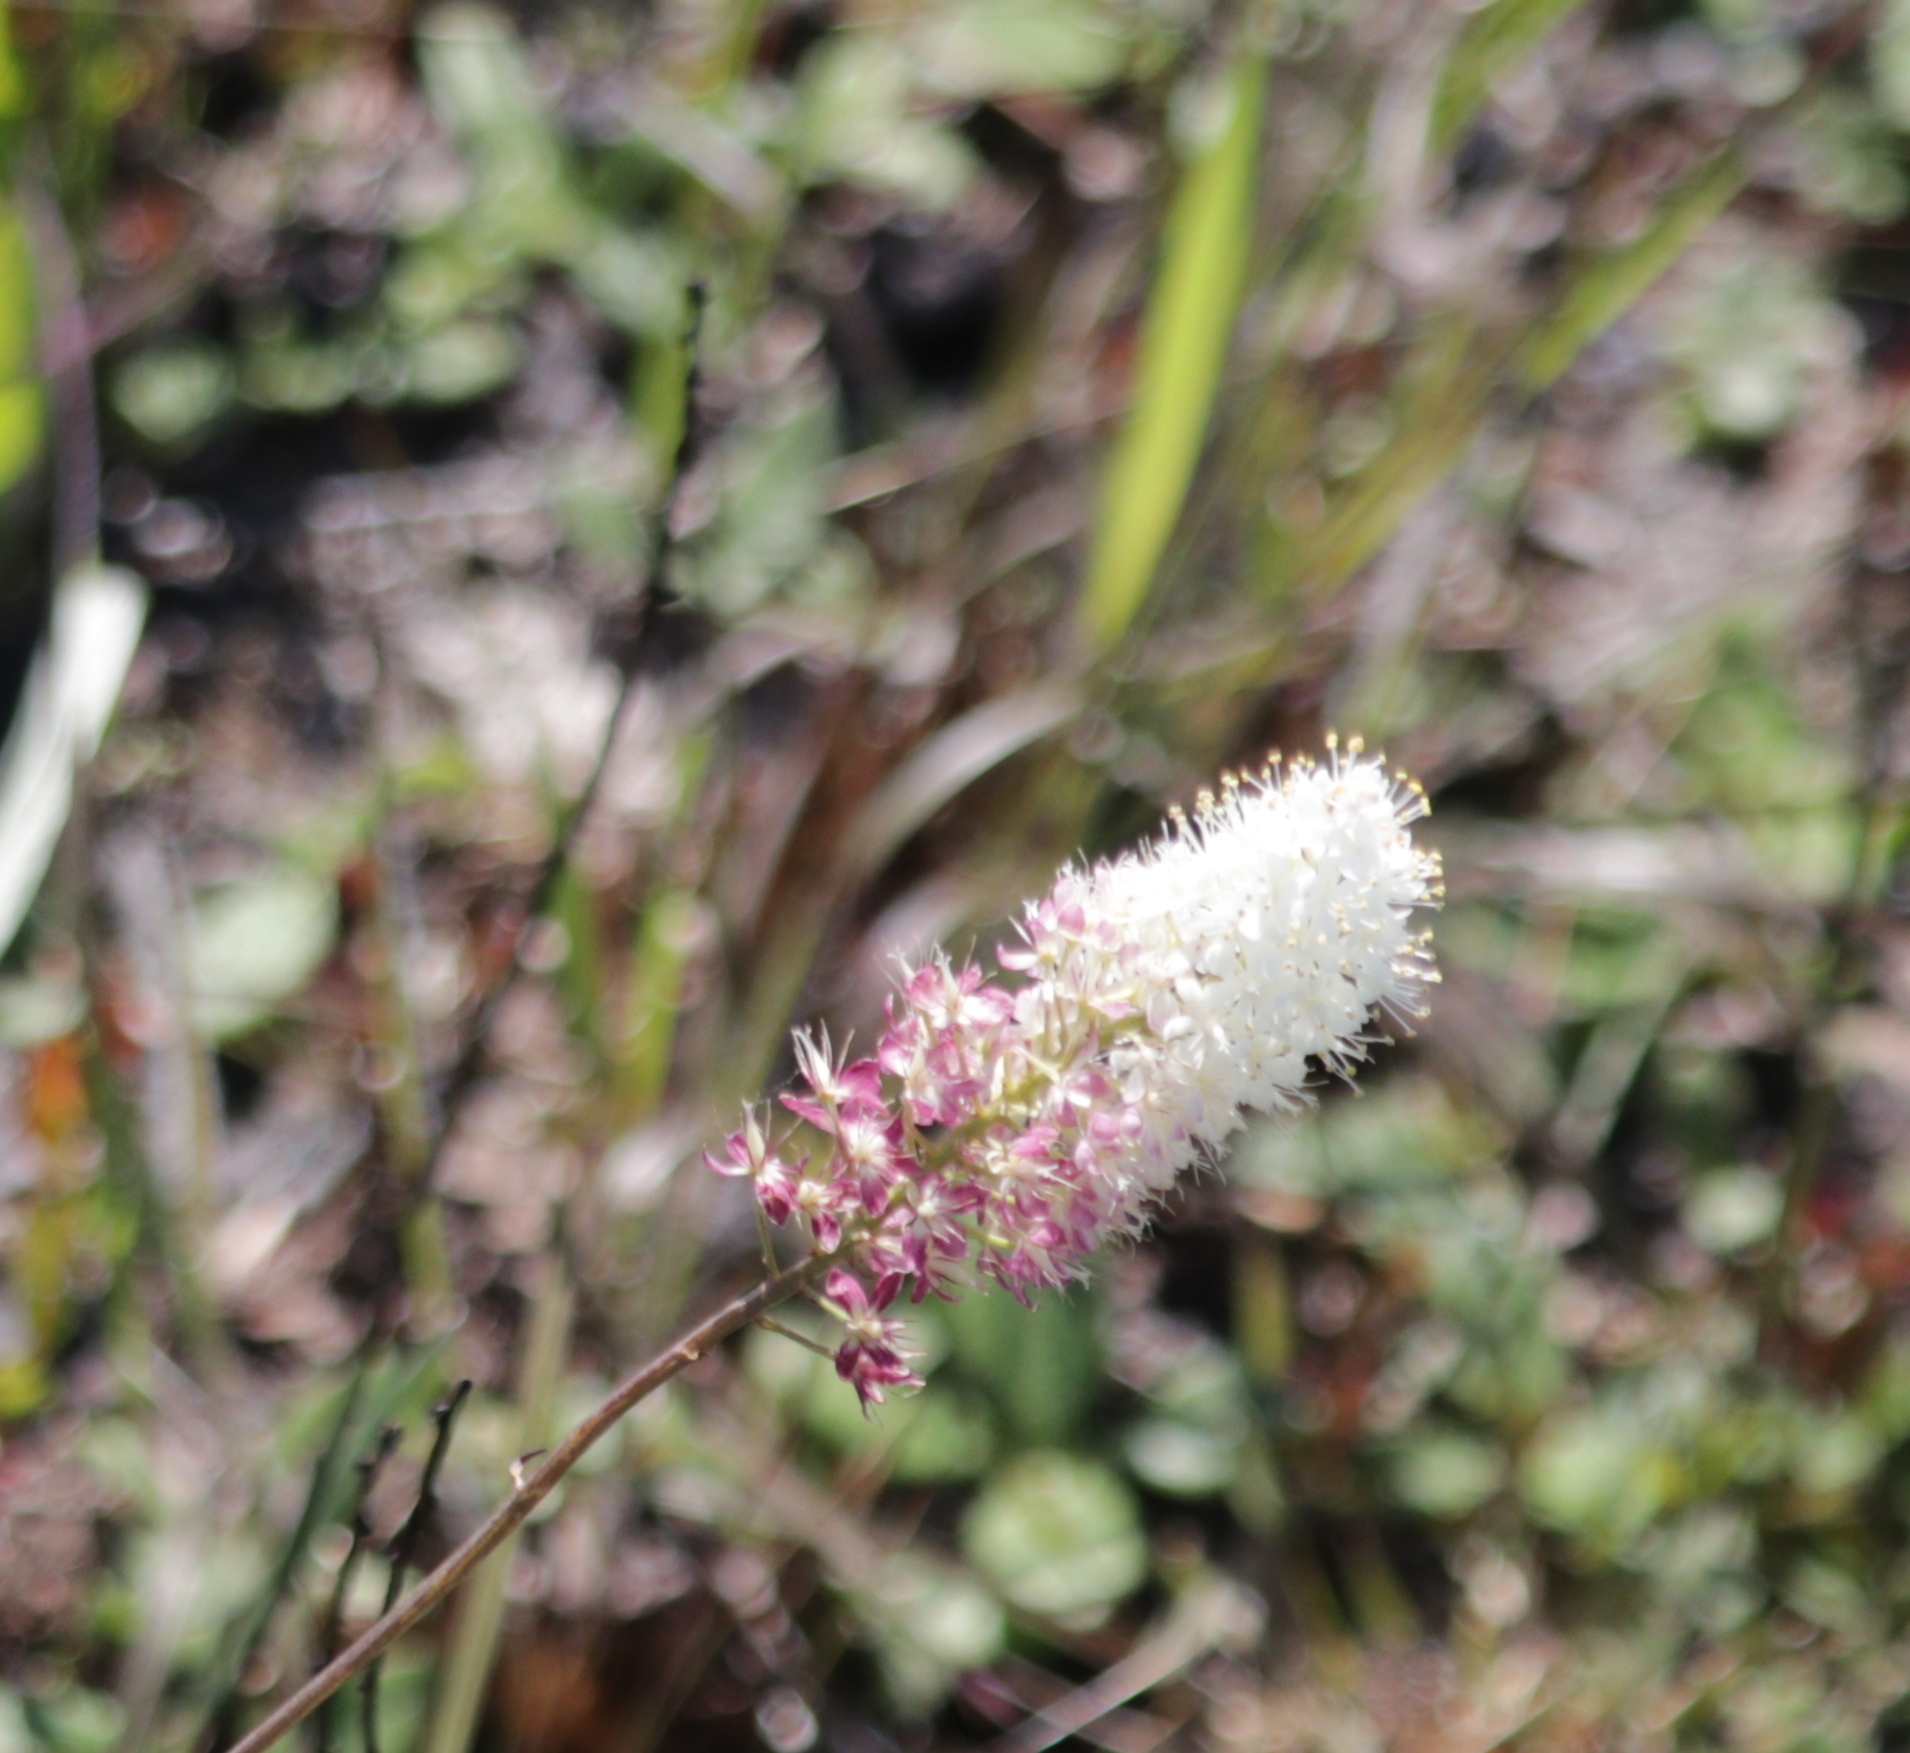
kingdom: Plantae
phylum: Tracheophyta
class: Liliopsida
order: Liliales
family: Melanthiaceae
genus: Stenanthium
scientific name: Stenanthium densum
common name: Crow-poison
